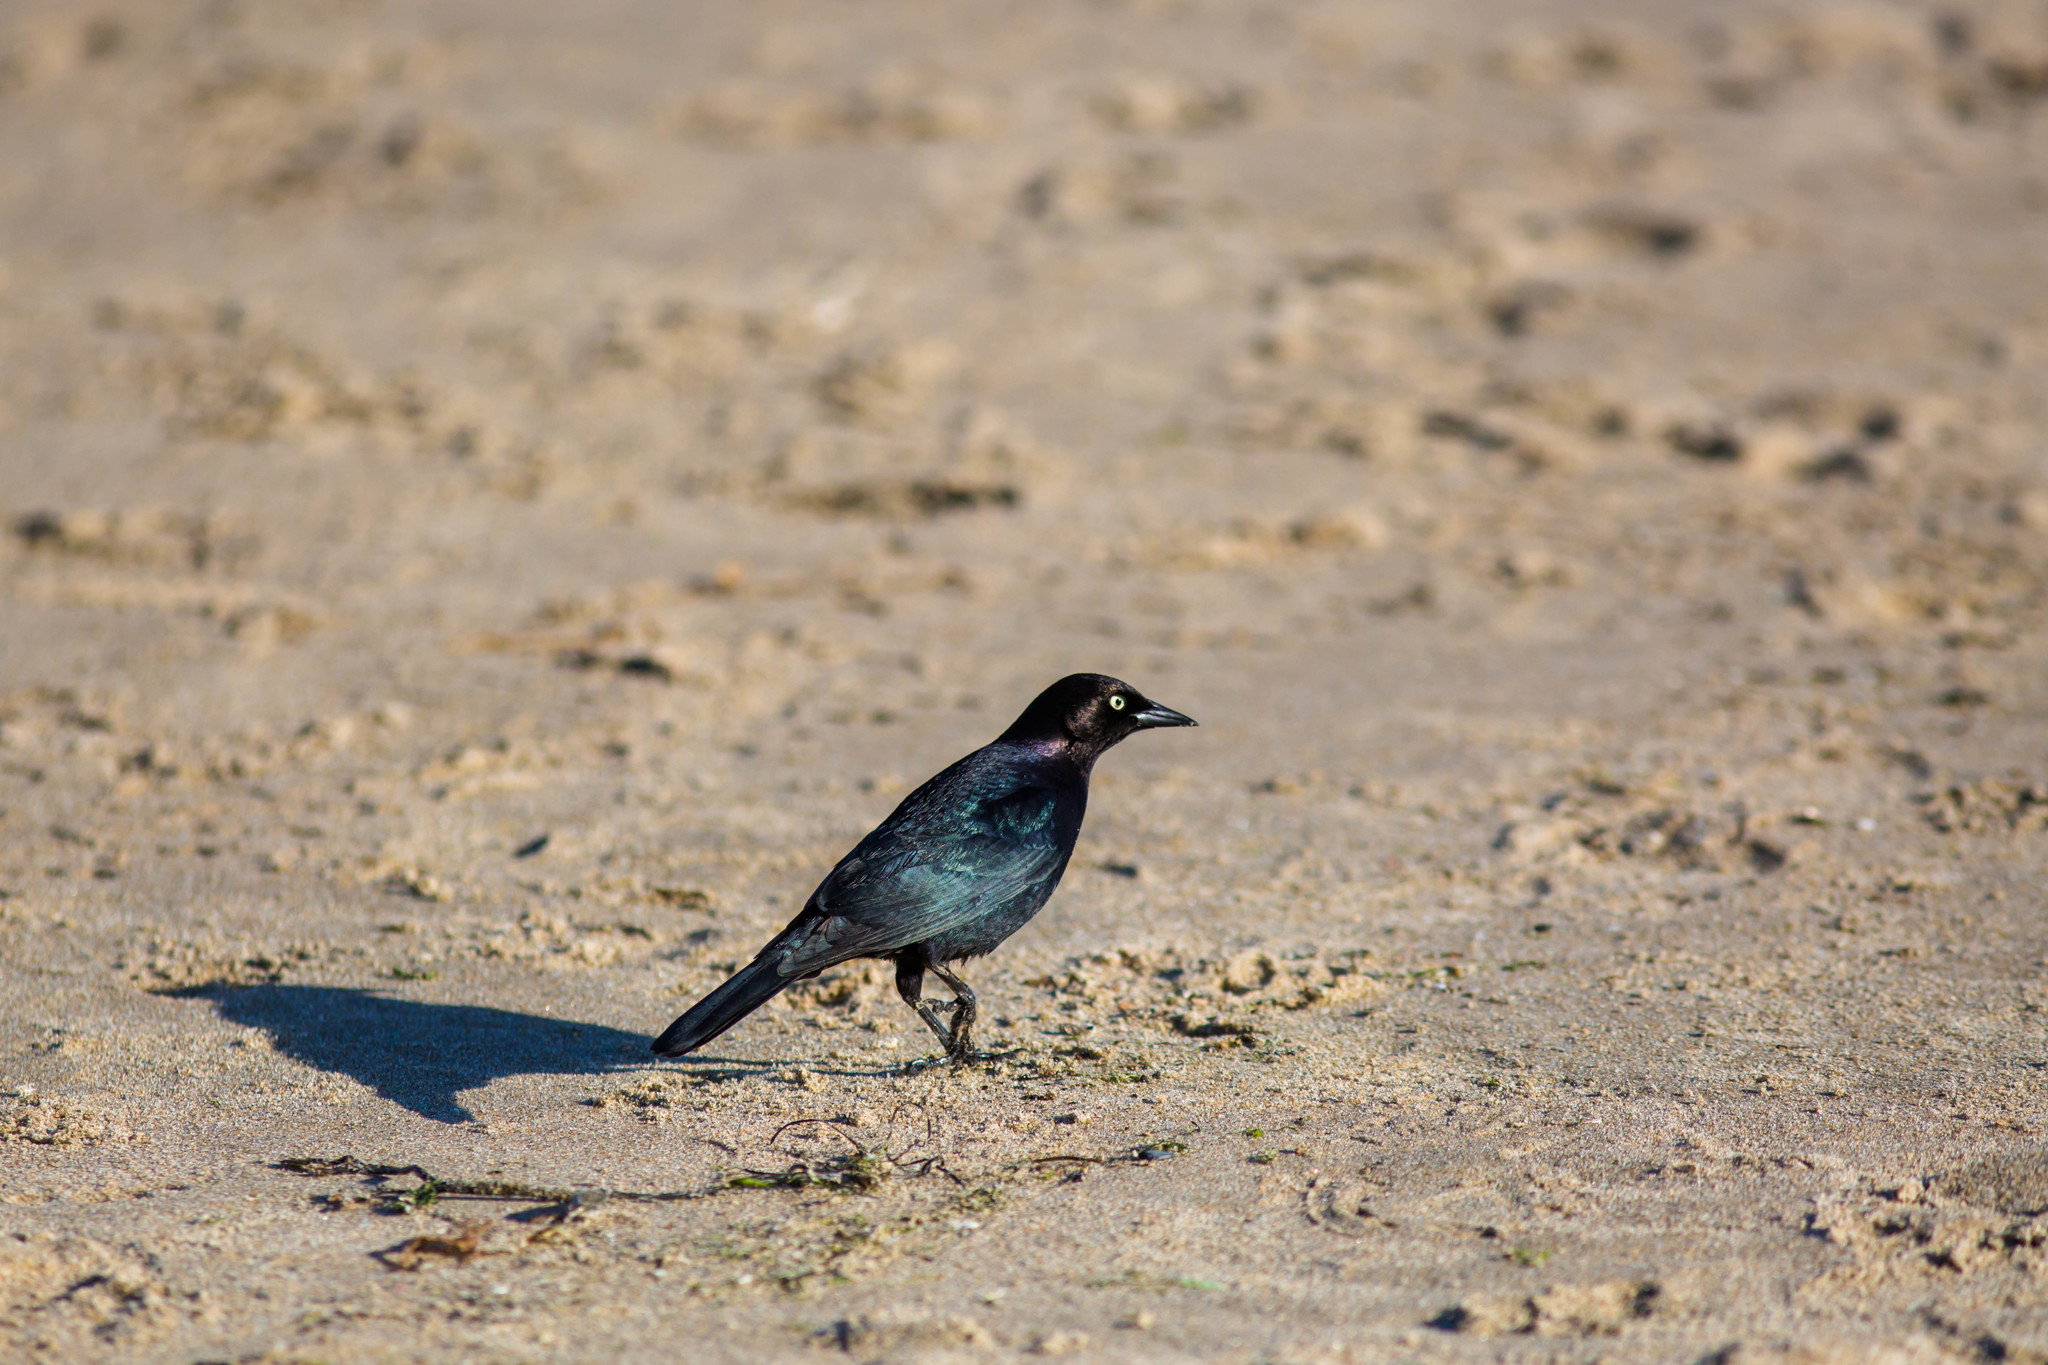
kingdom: Animalia
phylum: Chordata
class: Aves
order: Passeriformes
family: Icteridae
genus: Euphagus
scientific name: Euphagus cyanocephalus
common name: Brewer's blackbird
